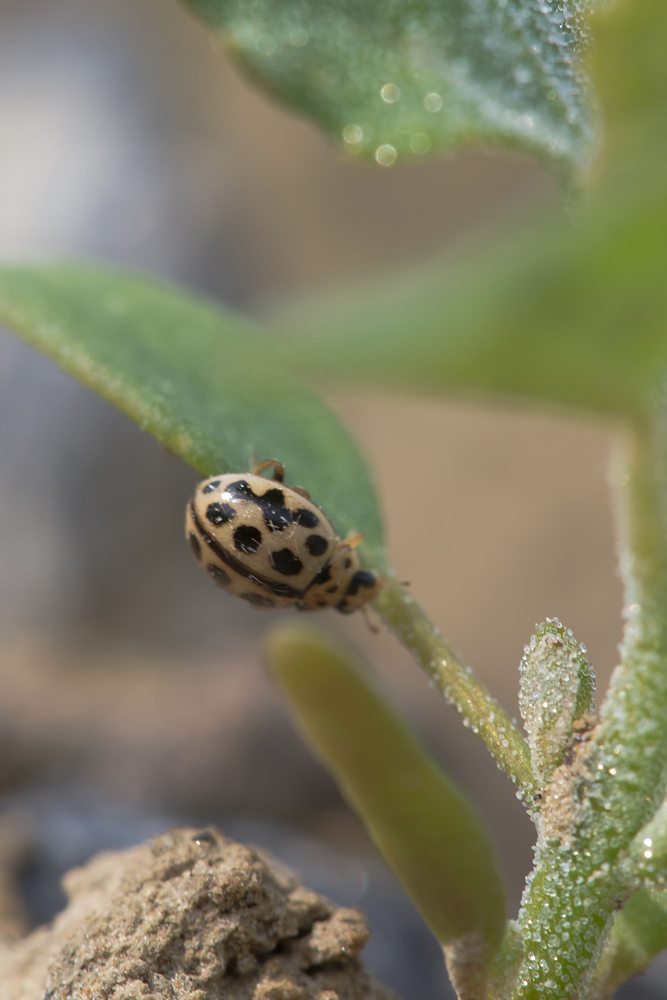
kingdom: Animalia
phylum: Arthropoda
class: Insecta
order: Coleoptera
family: Coccinellidae
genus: Tytthaspis
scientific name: Tytthaspis sedecimpunctata
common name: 16-spot ladybird
